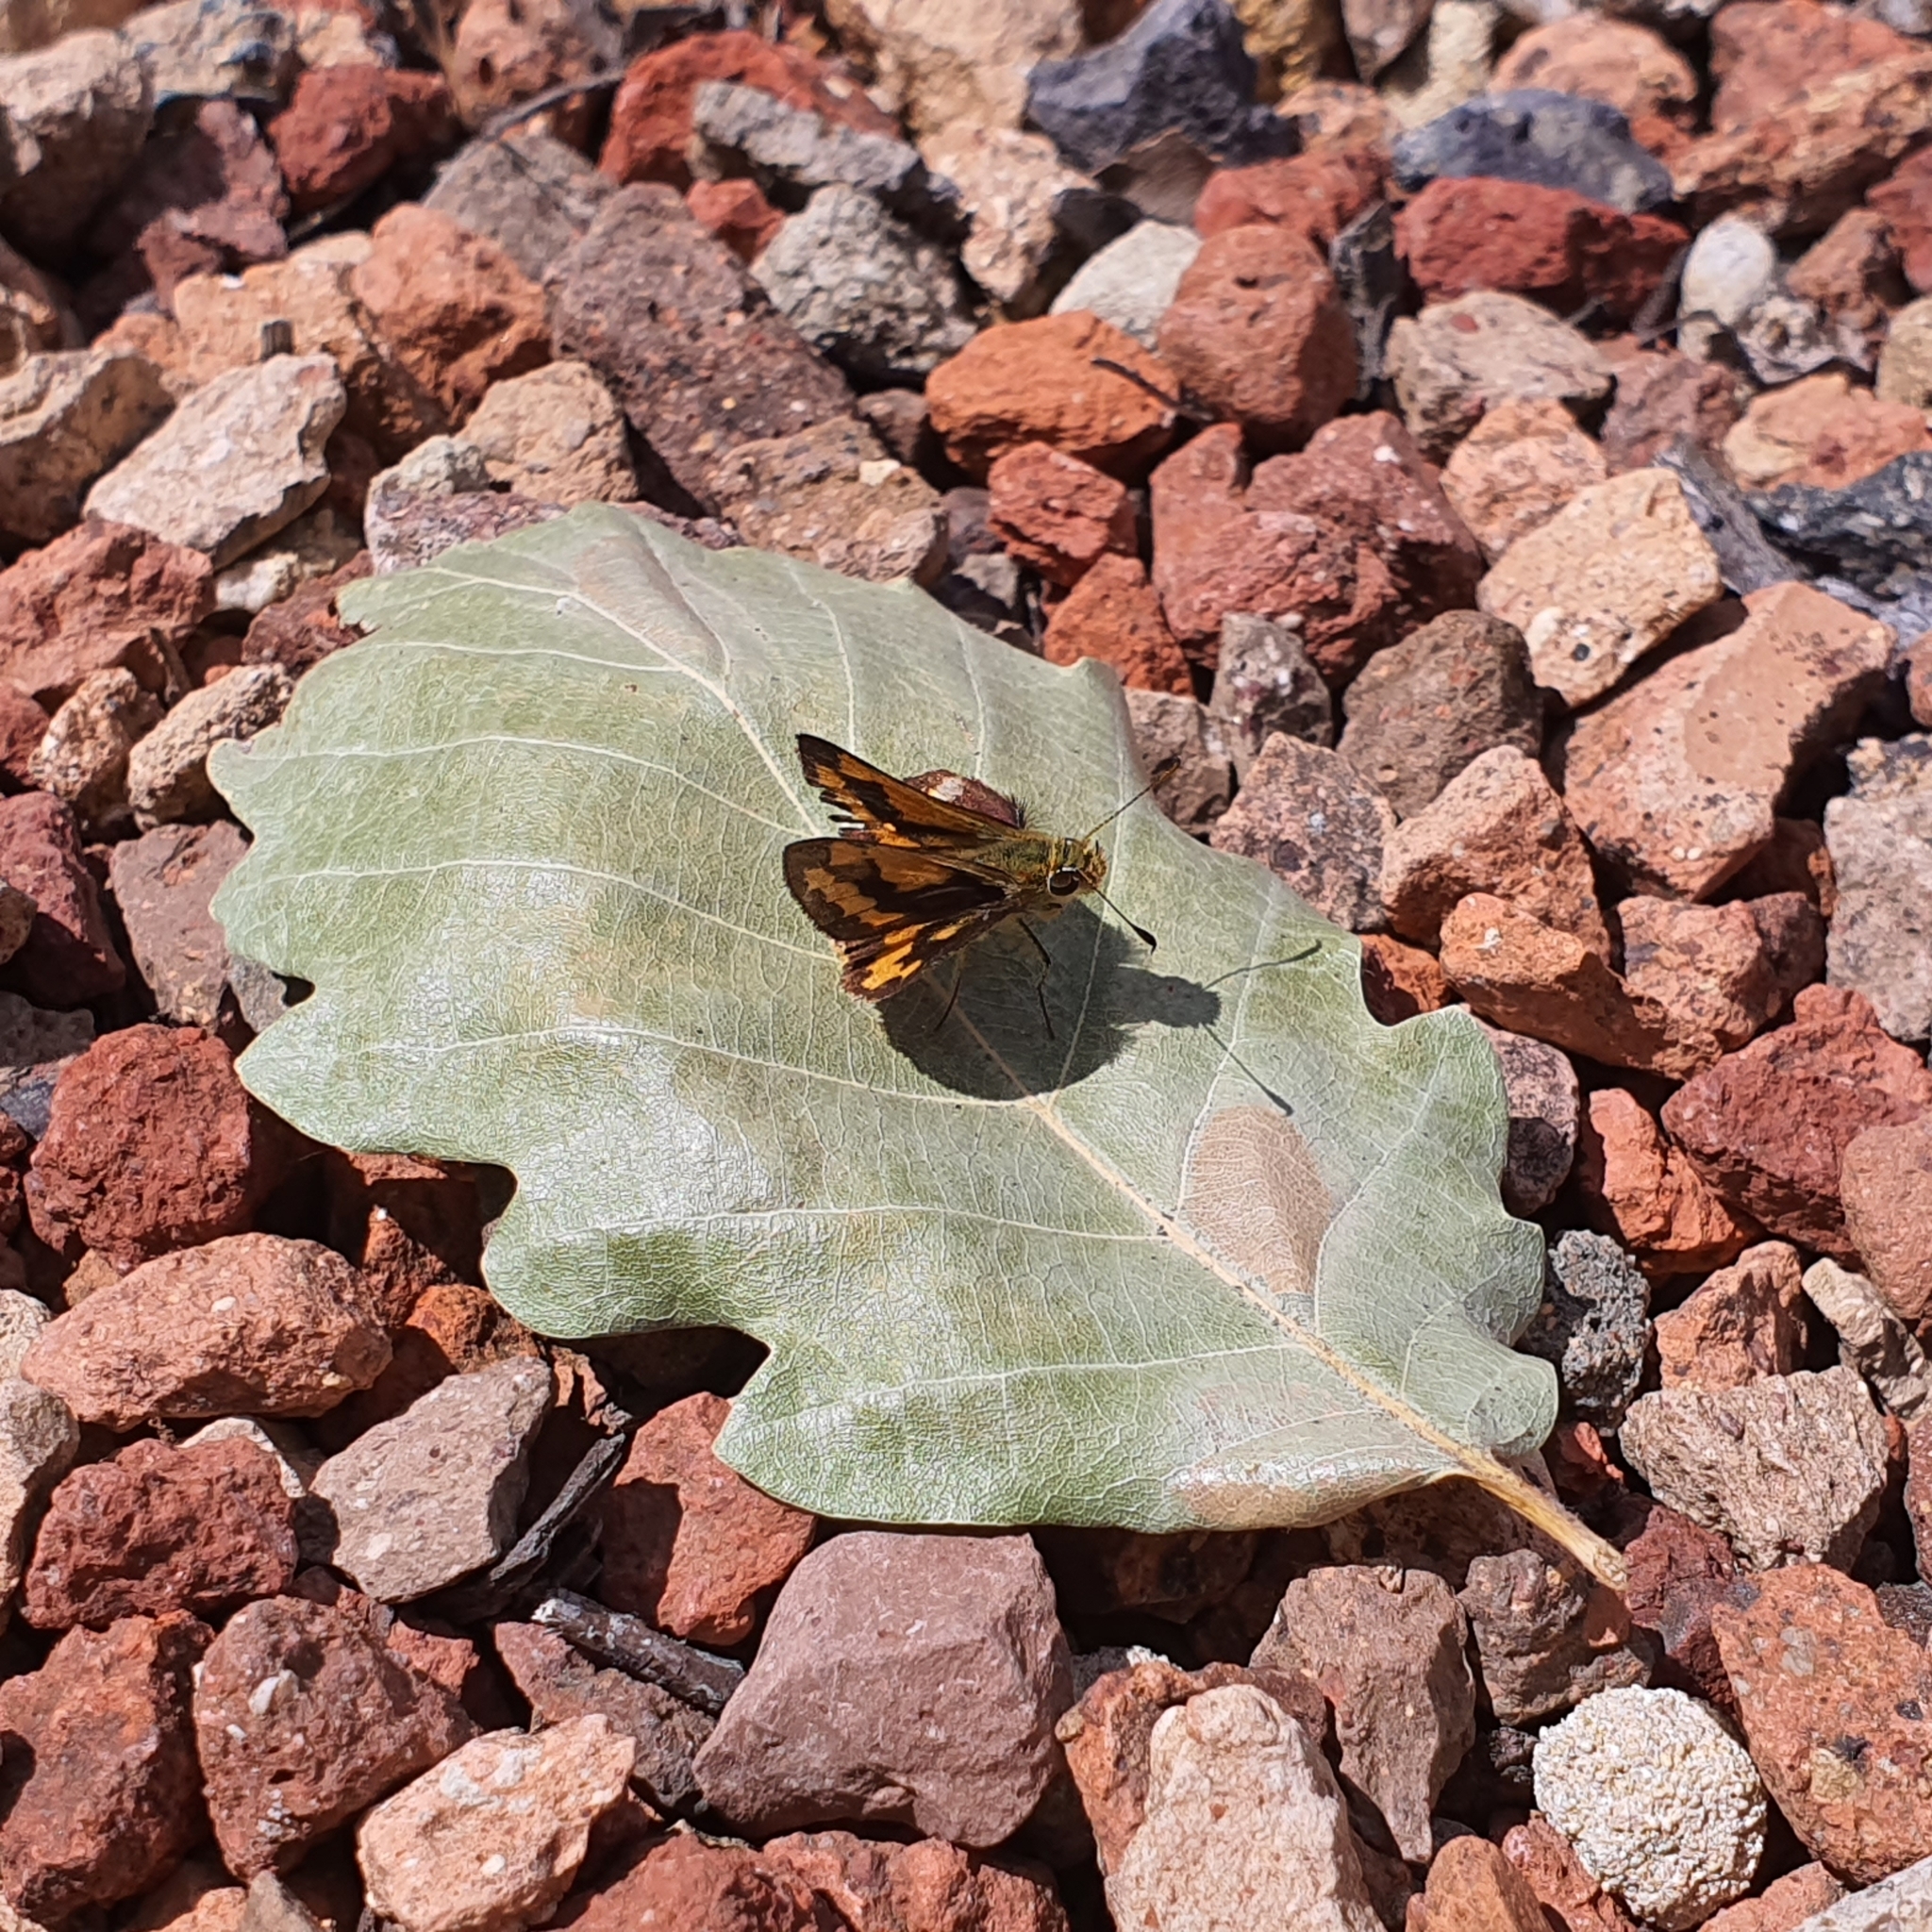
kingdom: Animalia
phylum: Arthropoda
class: Insecta
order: Lepidoptera
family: Hesperiidae
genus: Ocybadistes
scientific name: Ocybadistes walkeri
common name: Yellow-banded dart
